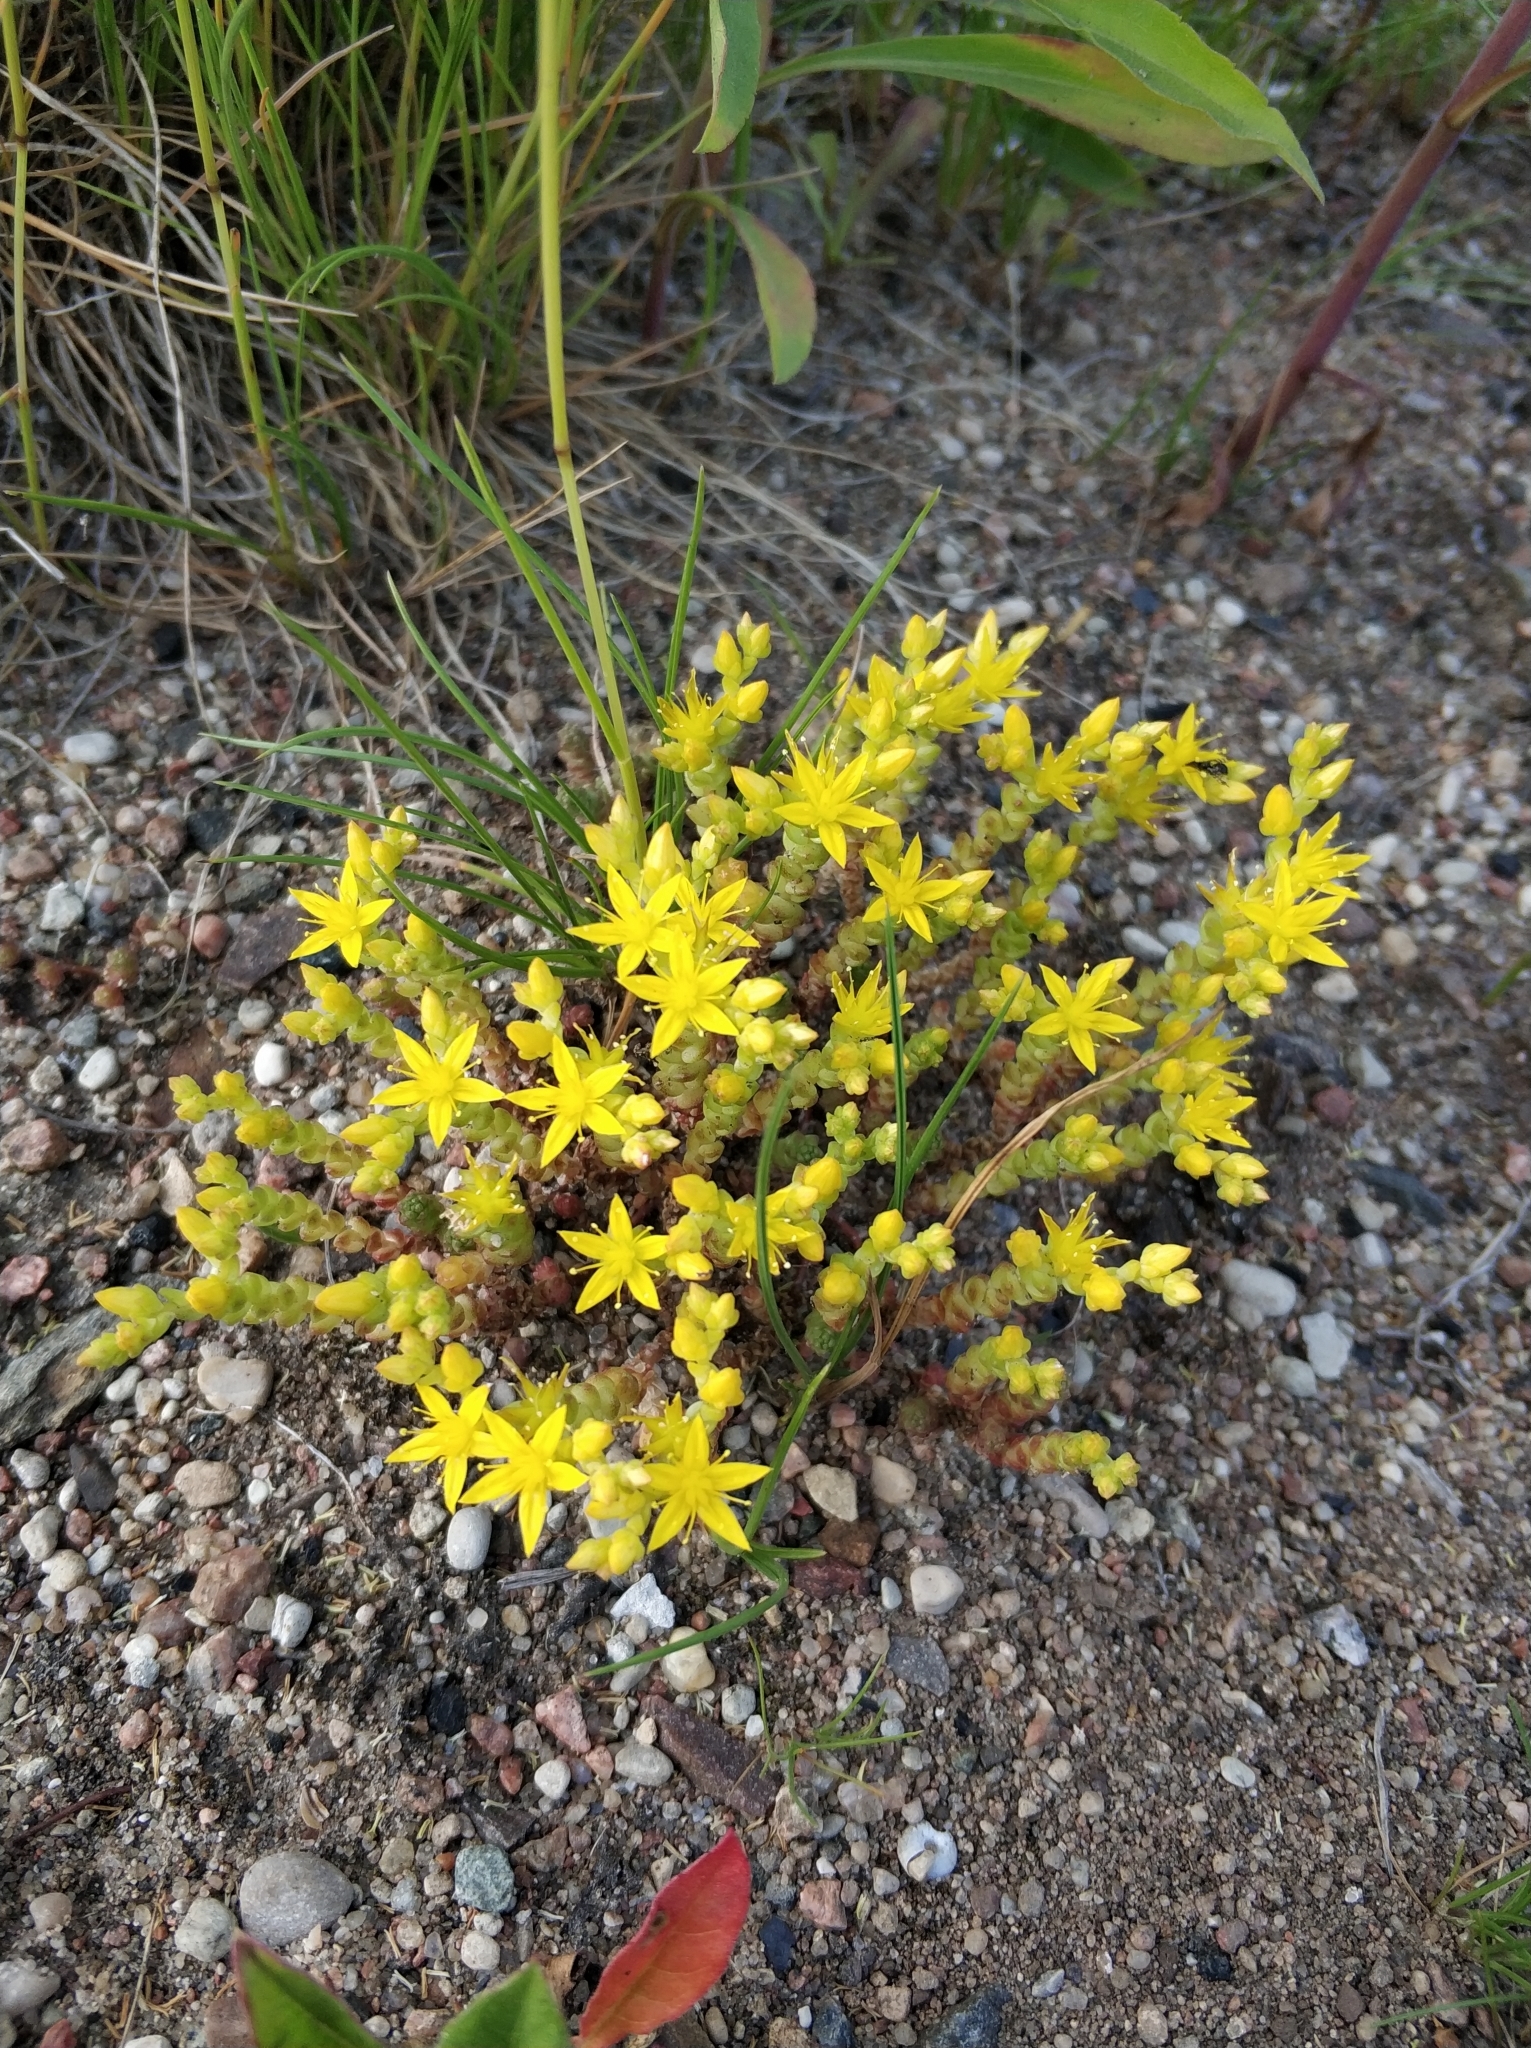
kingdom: Plantae
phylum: Tracheophyta
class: Magnoliopsida
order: Saxifragales
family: Crassulaceae
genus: Sedum
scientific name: Sedum acre
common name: Biting stonecrop
